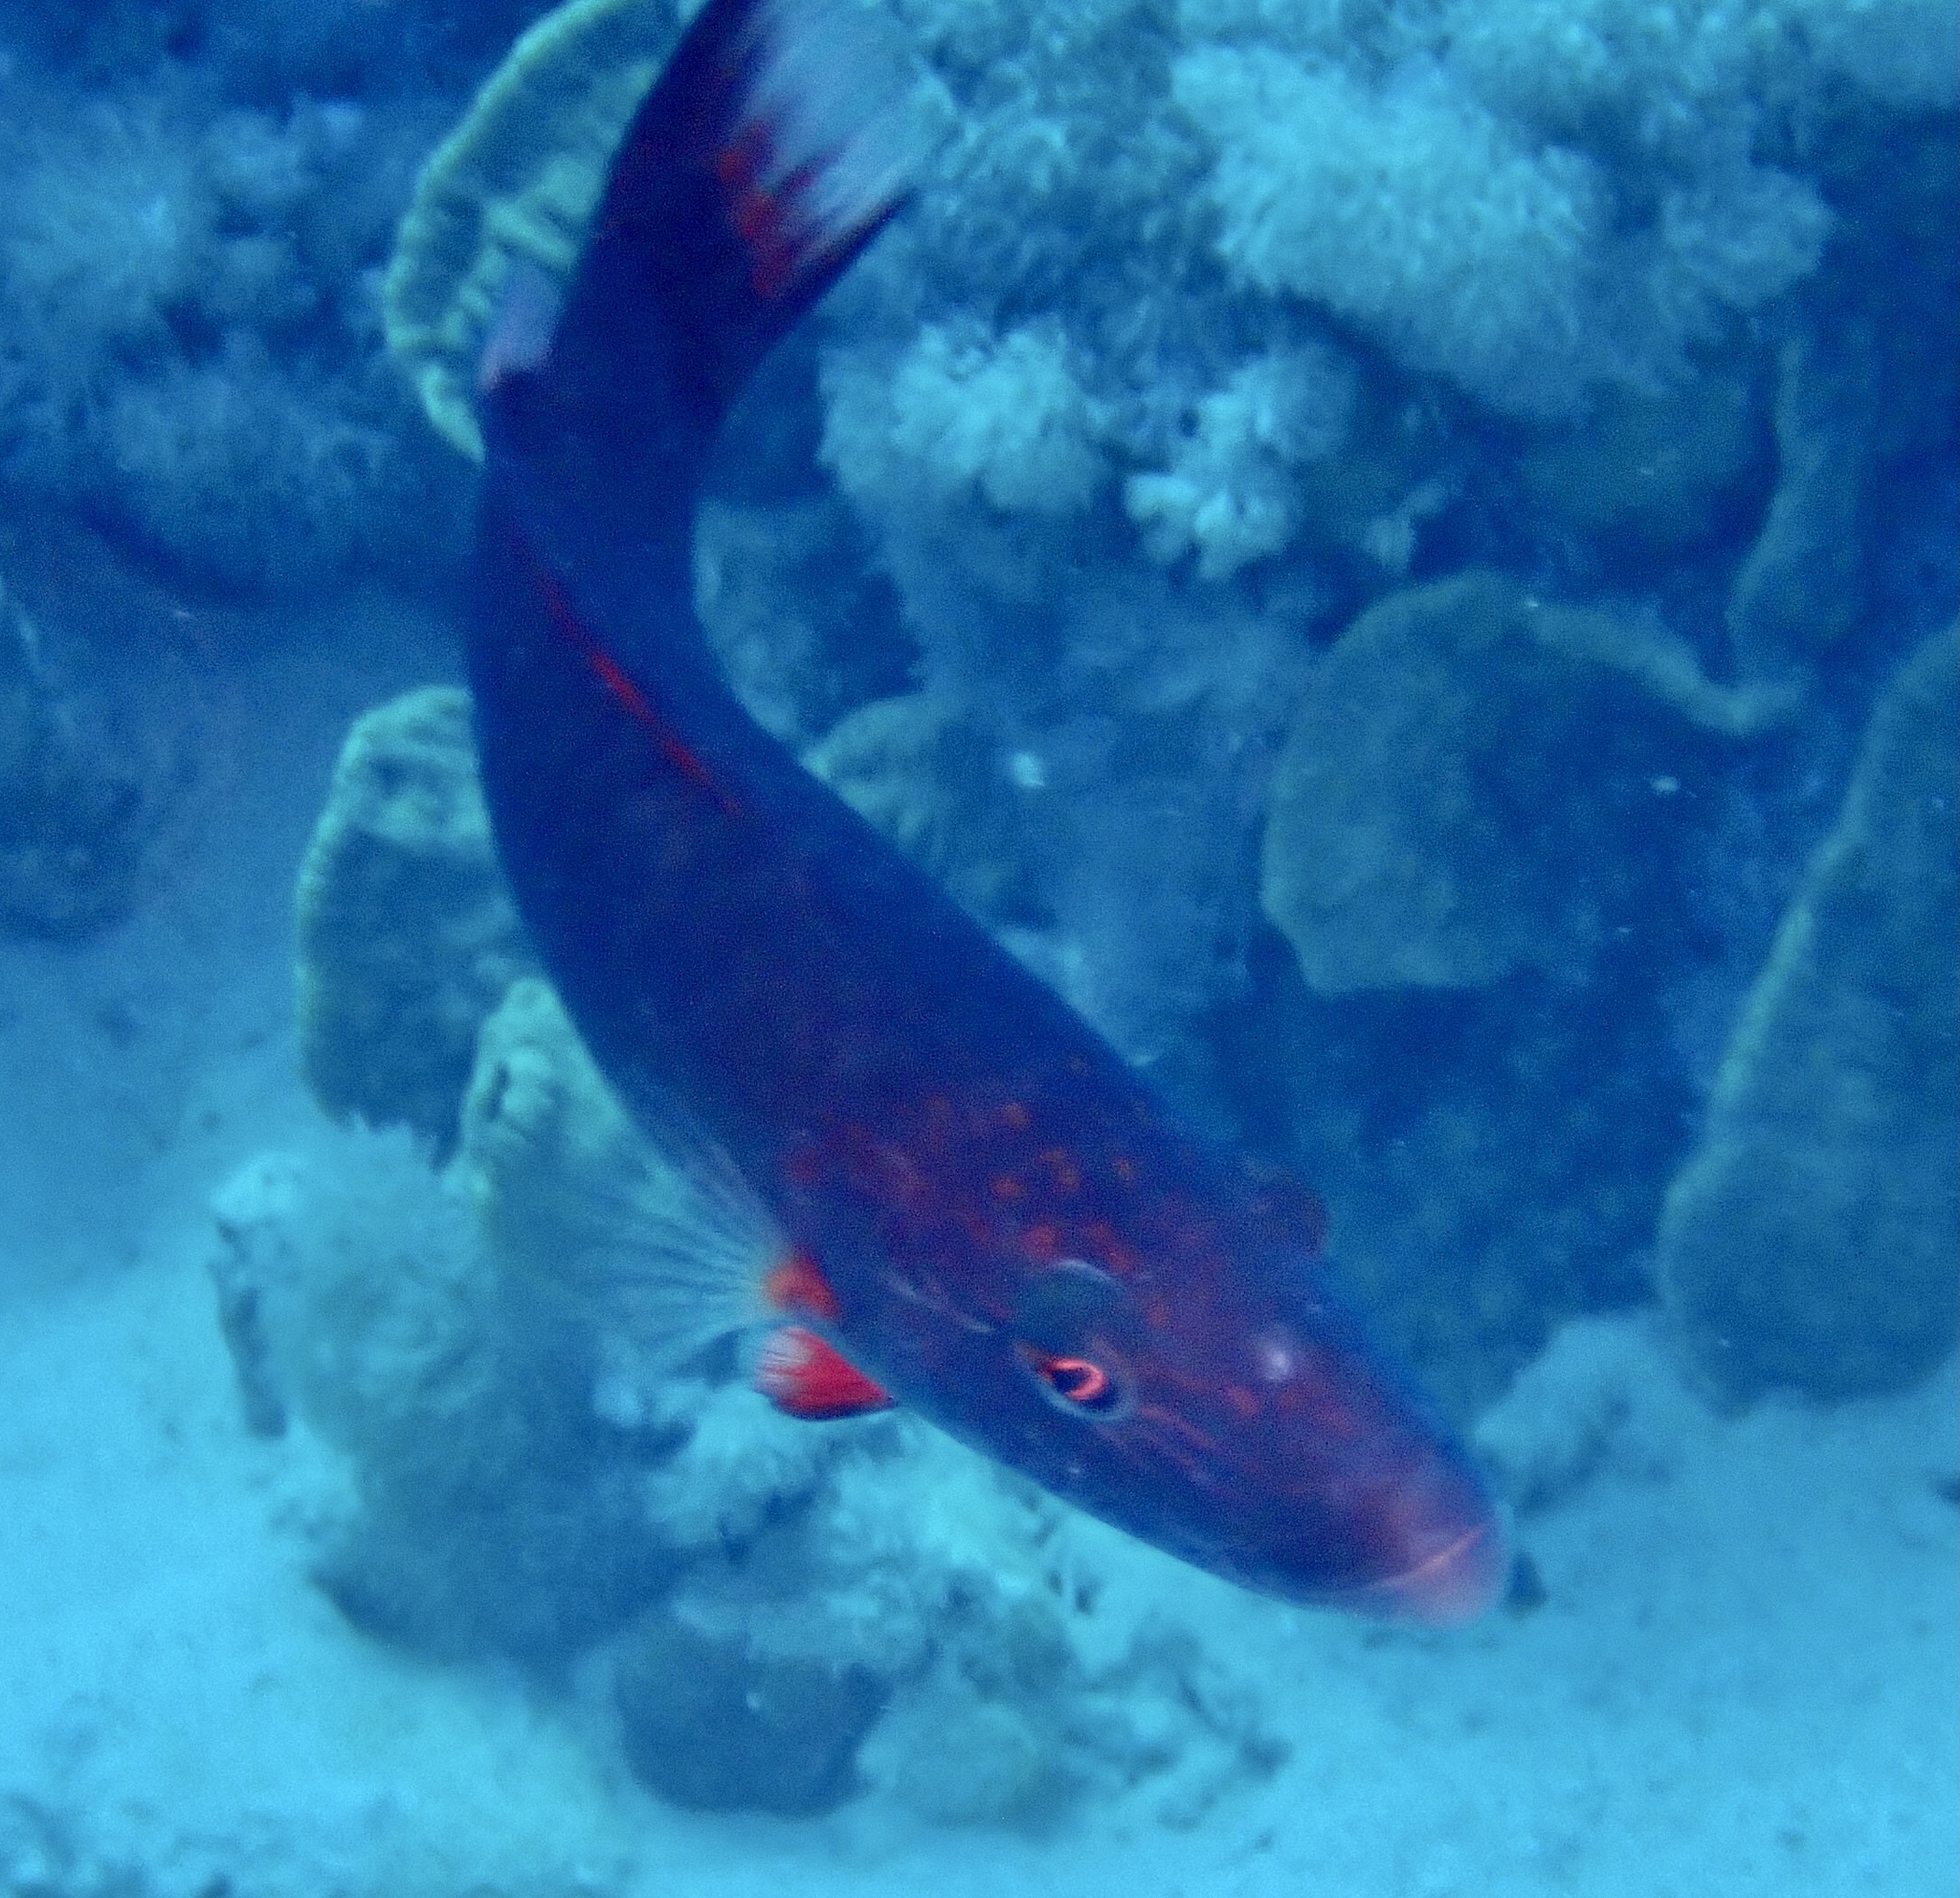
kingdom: Animalia
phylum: Chordata
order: Perciformes
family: Labridae
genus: Oxycheilinus
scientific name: Oxycheilinus digramma
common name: Bandcheek wrasse
